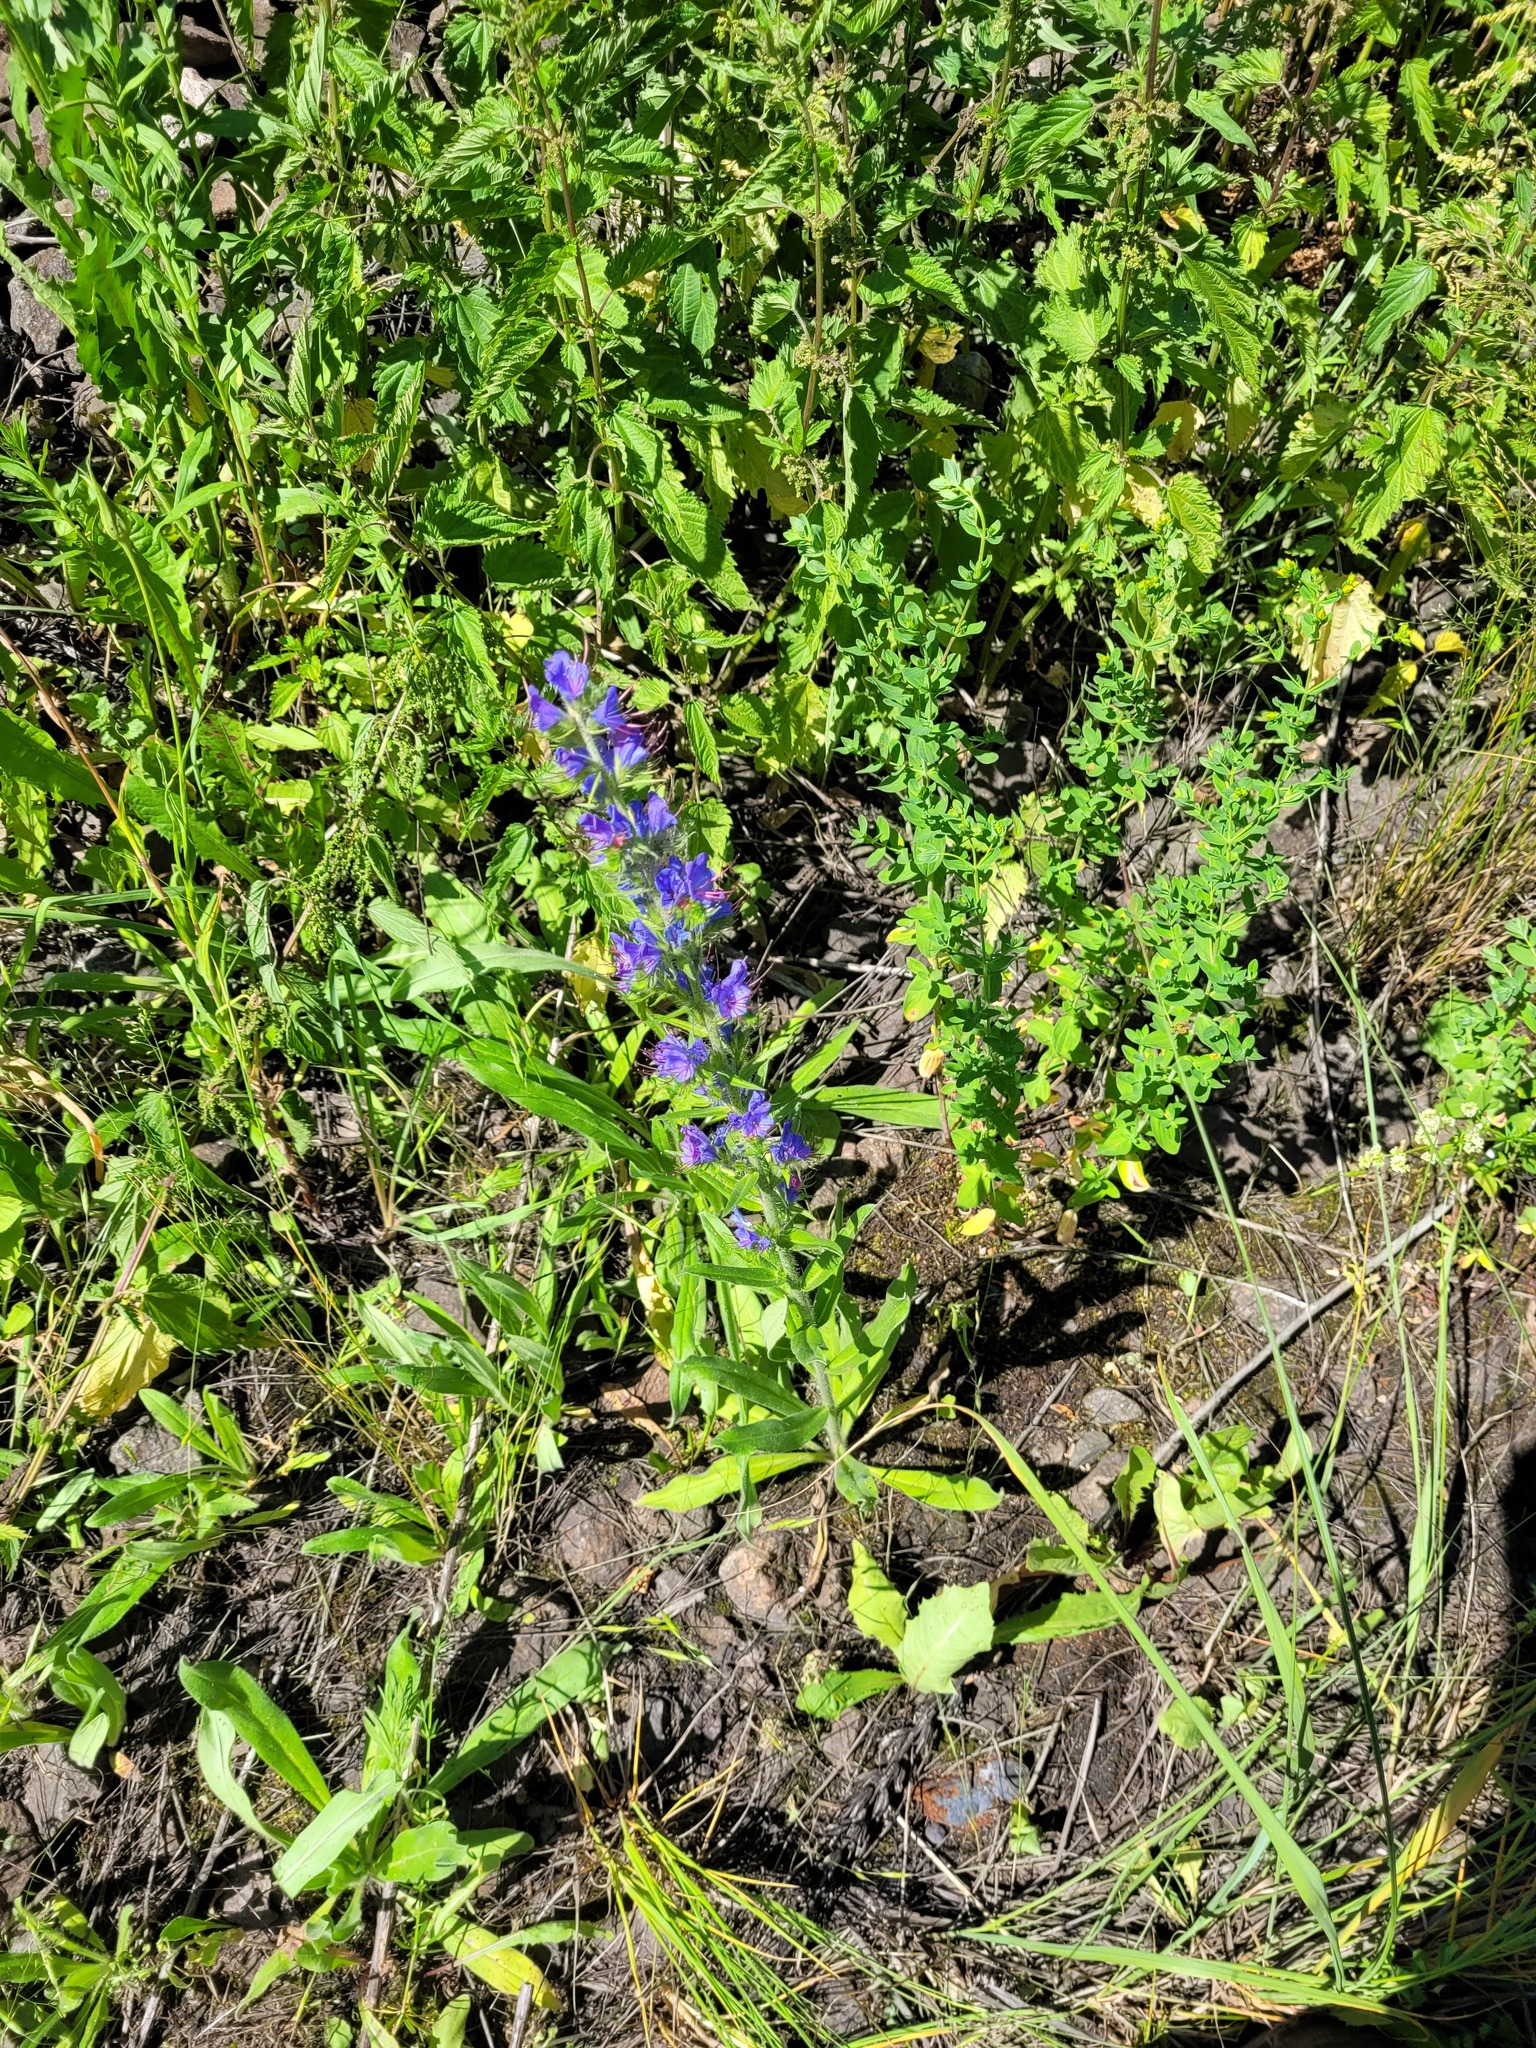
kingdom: Plantae
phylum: Tracheophyta
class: Magnoliopsida
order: Boraginales
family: Boraginaceae
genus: Echium
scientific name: Echium vulgare
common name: Common viper's bugloss
